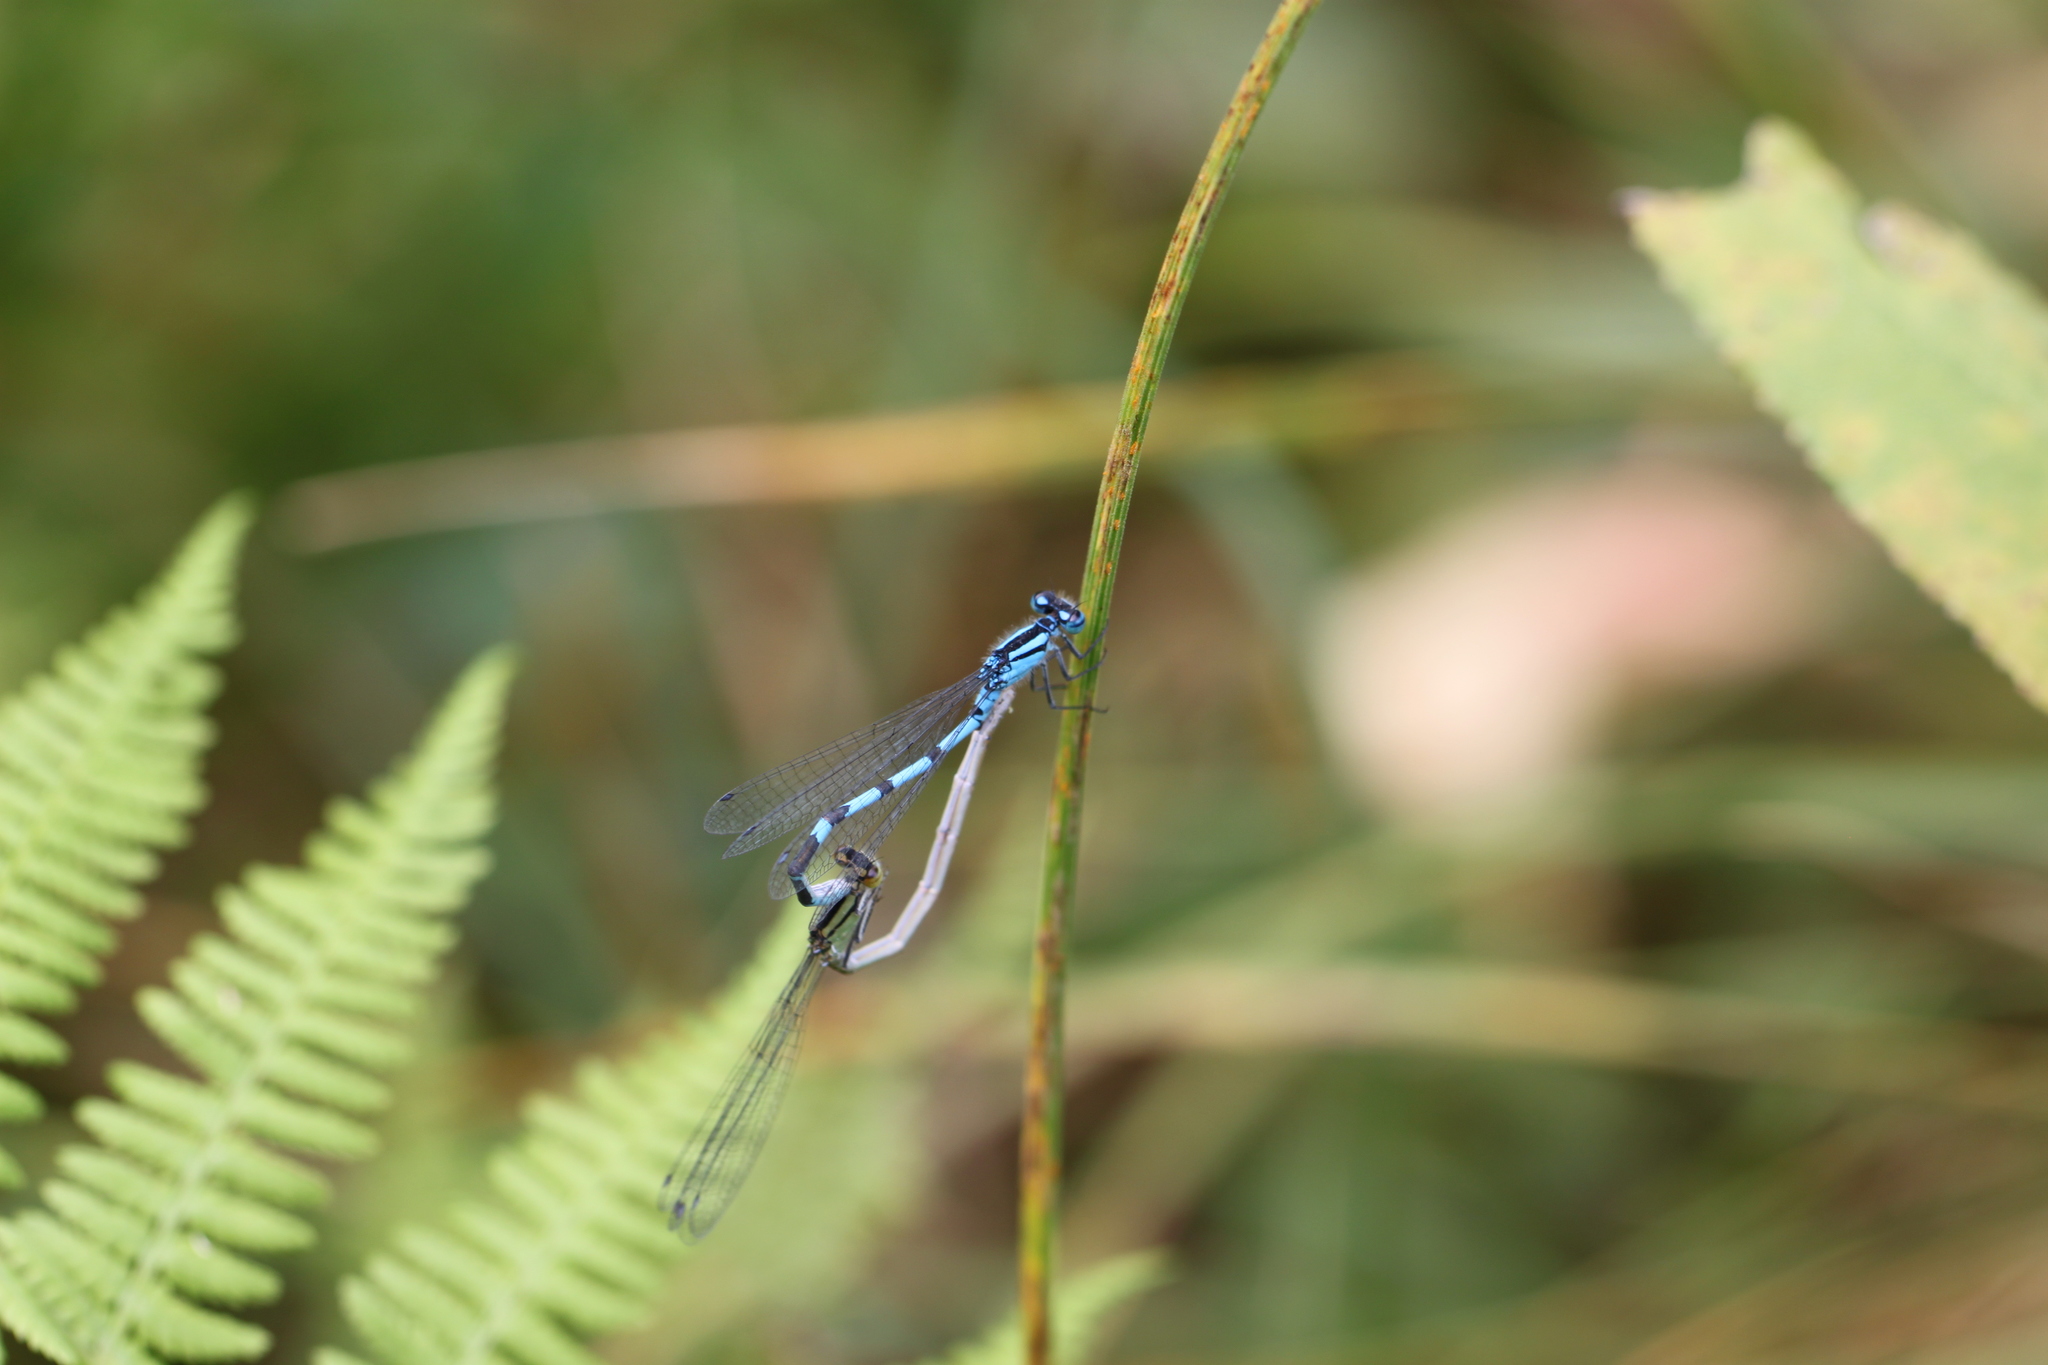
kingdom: Animalia
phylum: Arthropoda
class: Insecta
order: Odonata
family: Coenagrionidae
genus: Enallagma
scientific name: Enallagma cyathigerum
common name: Common blue damselfly
